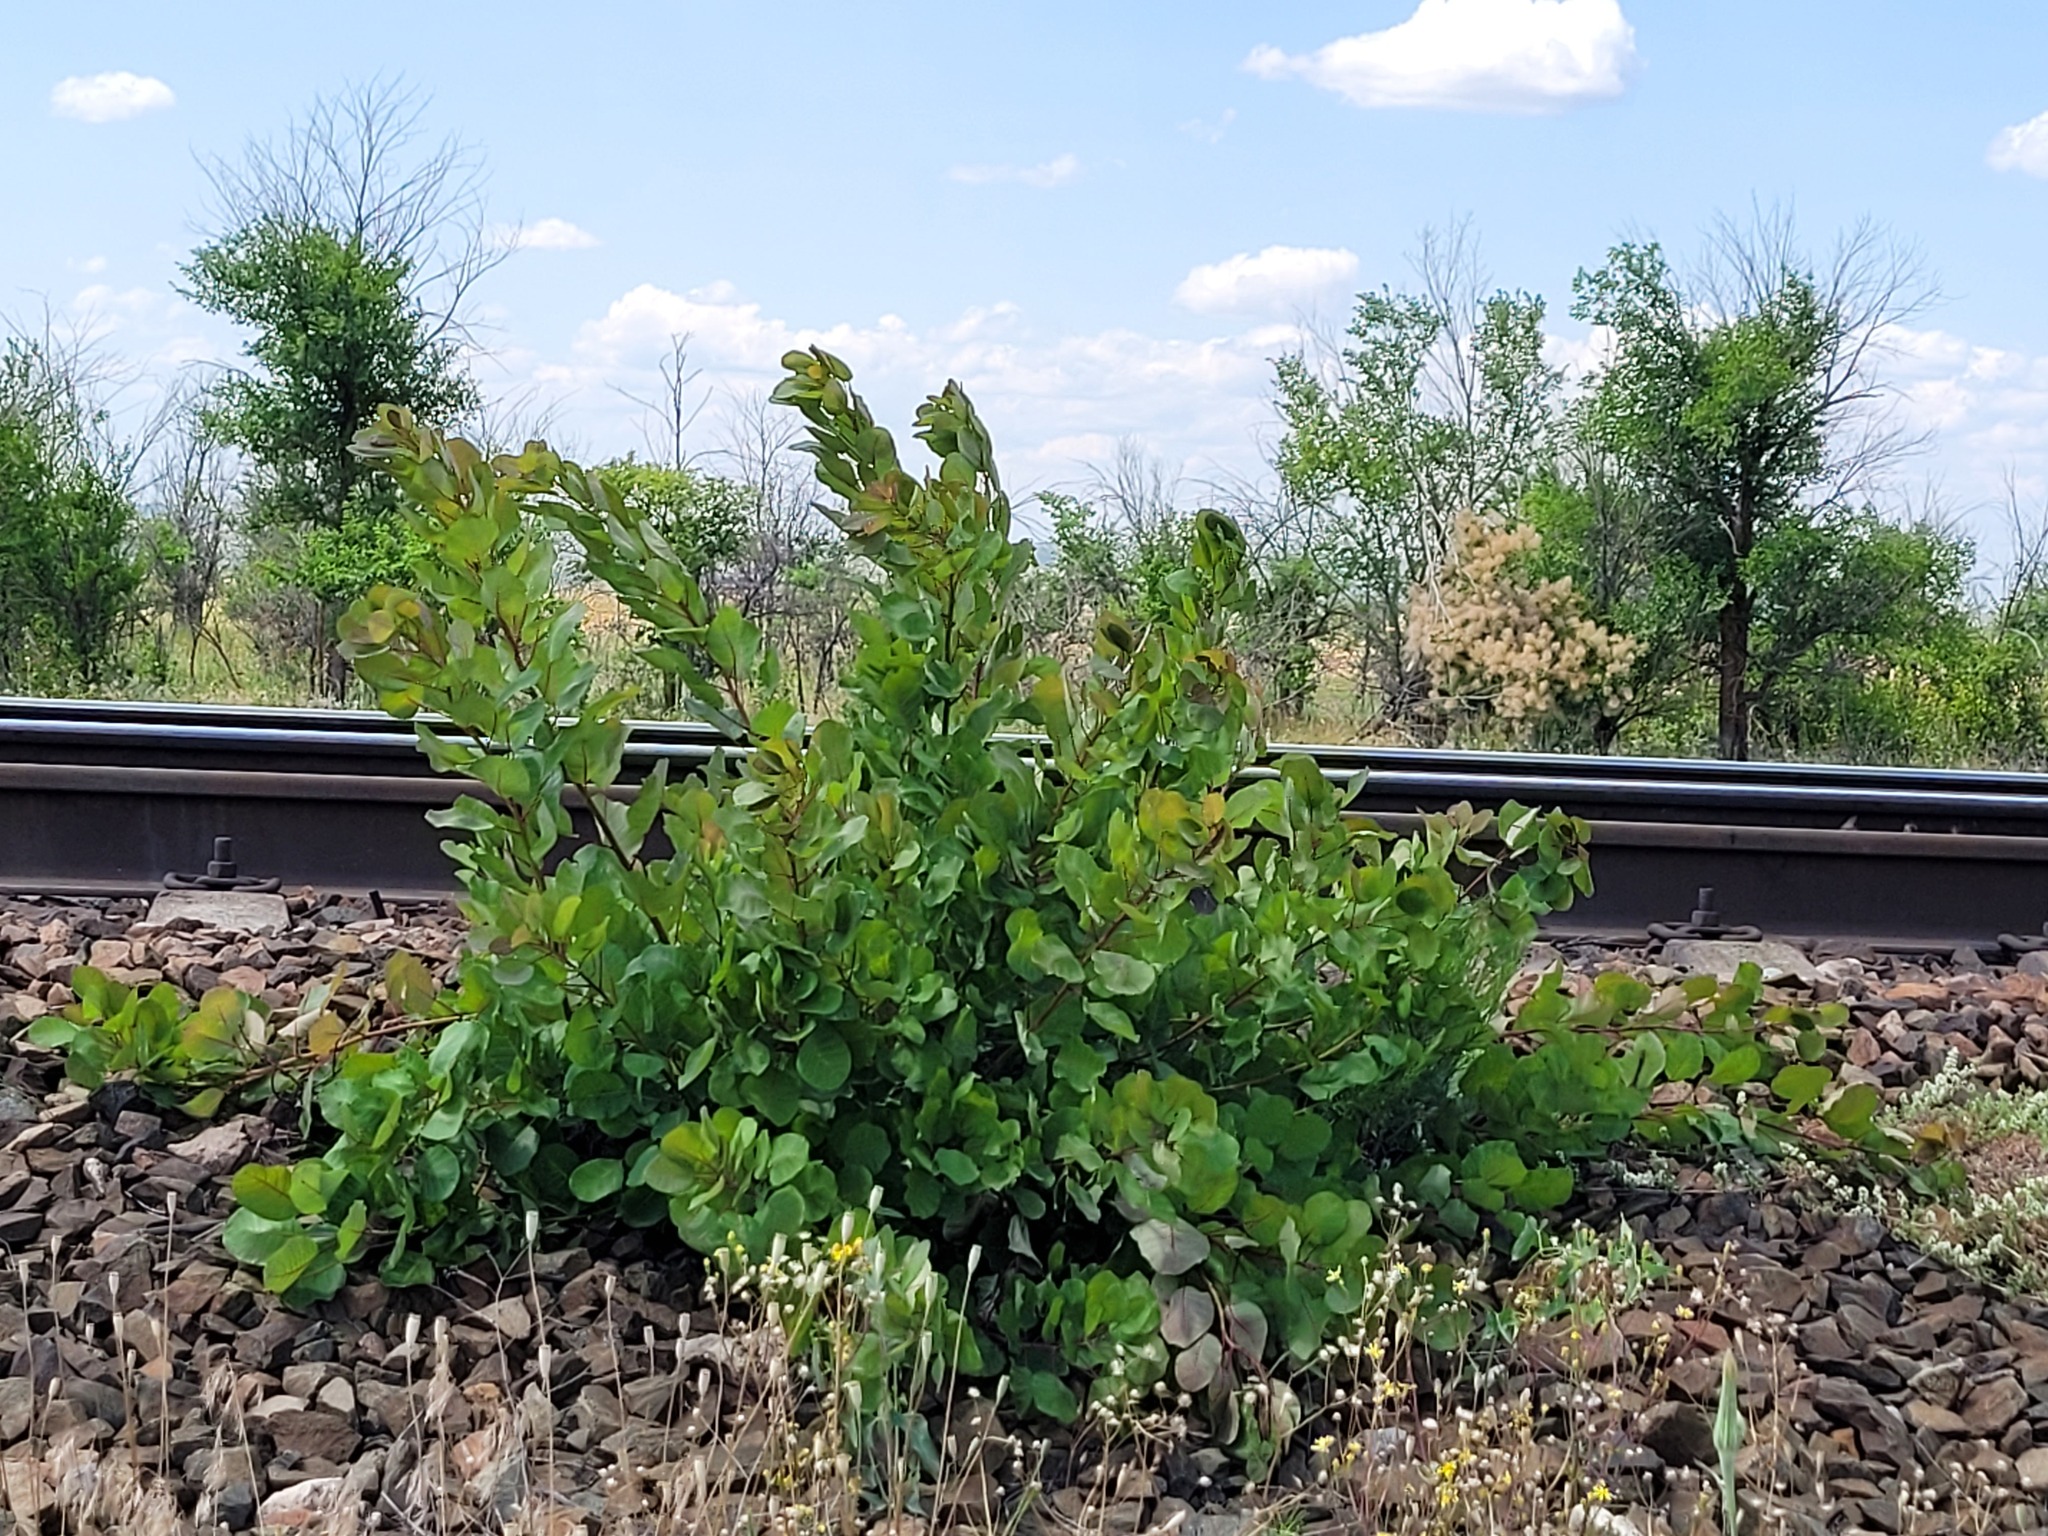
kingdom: Plantae
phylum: Tracheophyta
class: Magnoliopsida
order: Sapindales
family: Anacardiaceae
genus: Cotinus
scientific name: Cotinus coggygria
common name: Smoke-tree
